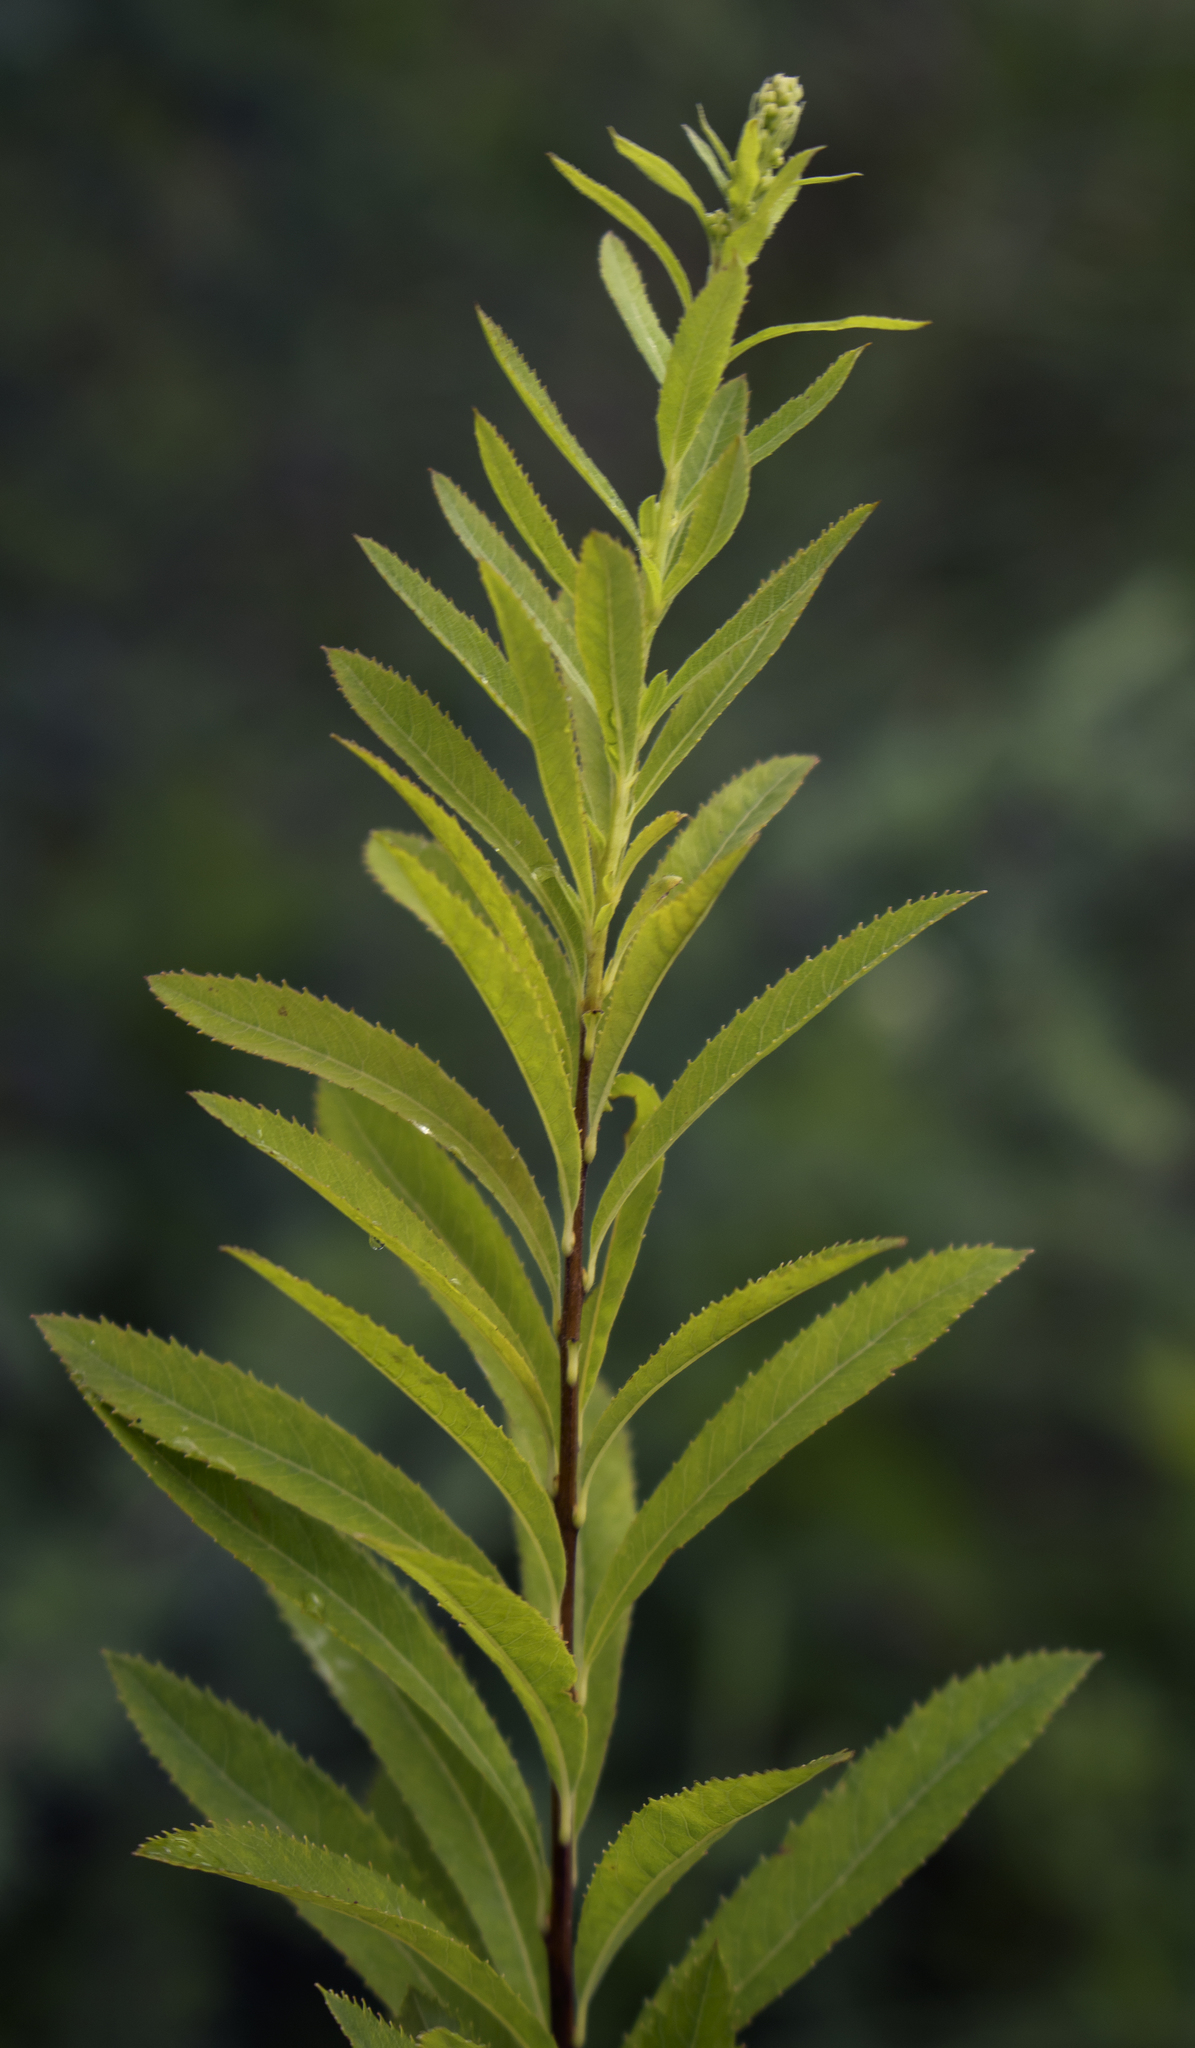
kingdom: Plantae
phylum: Tracheophyta
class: Magnoliopsida
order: Rosales
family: Rosaceae
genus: Spiraea
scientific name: Spiraea alba
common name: Pale bridewort
